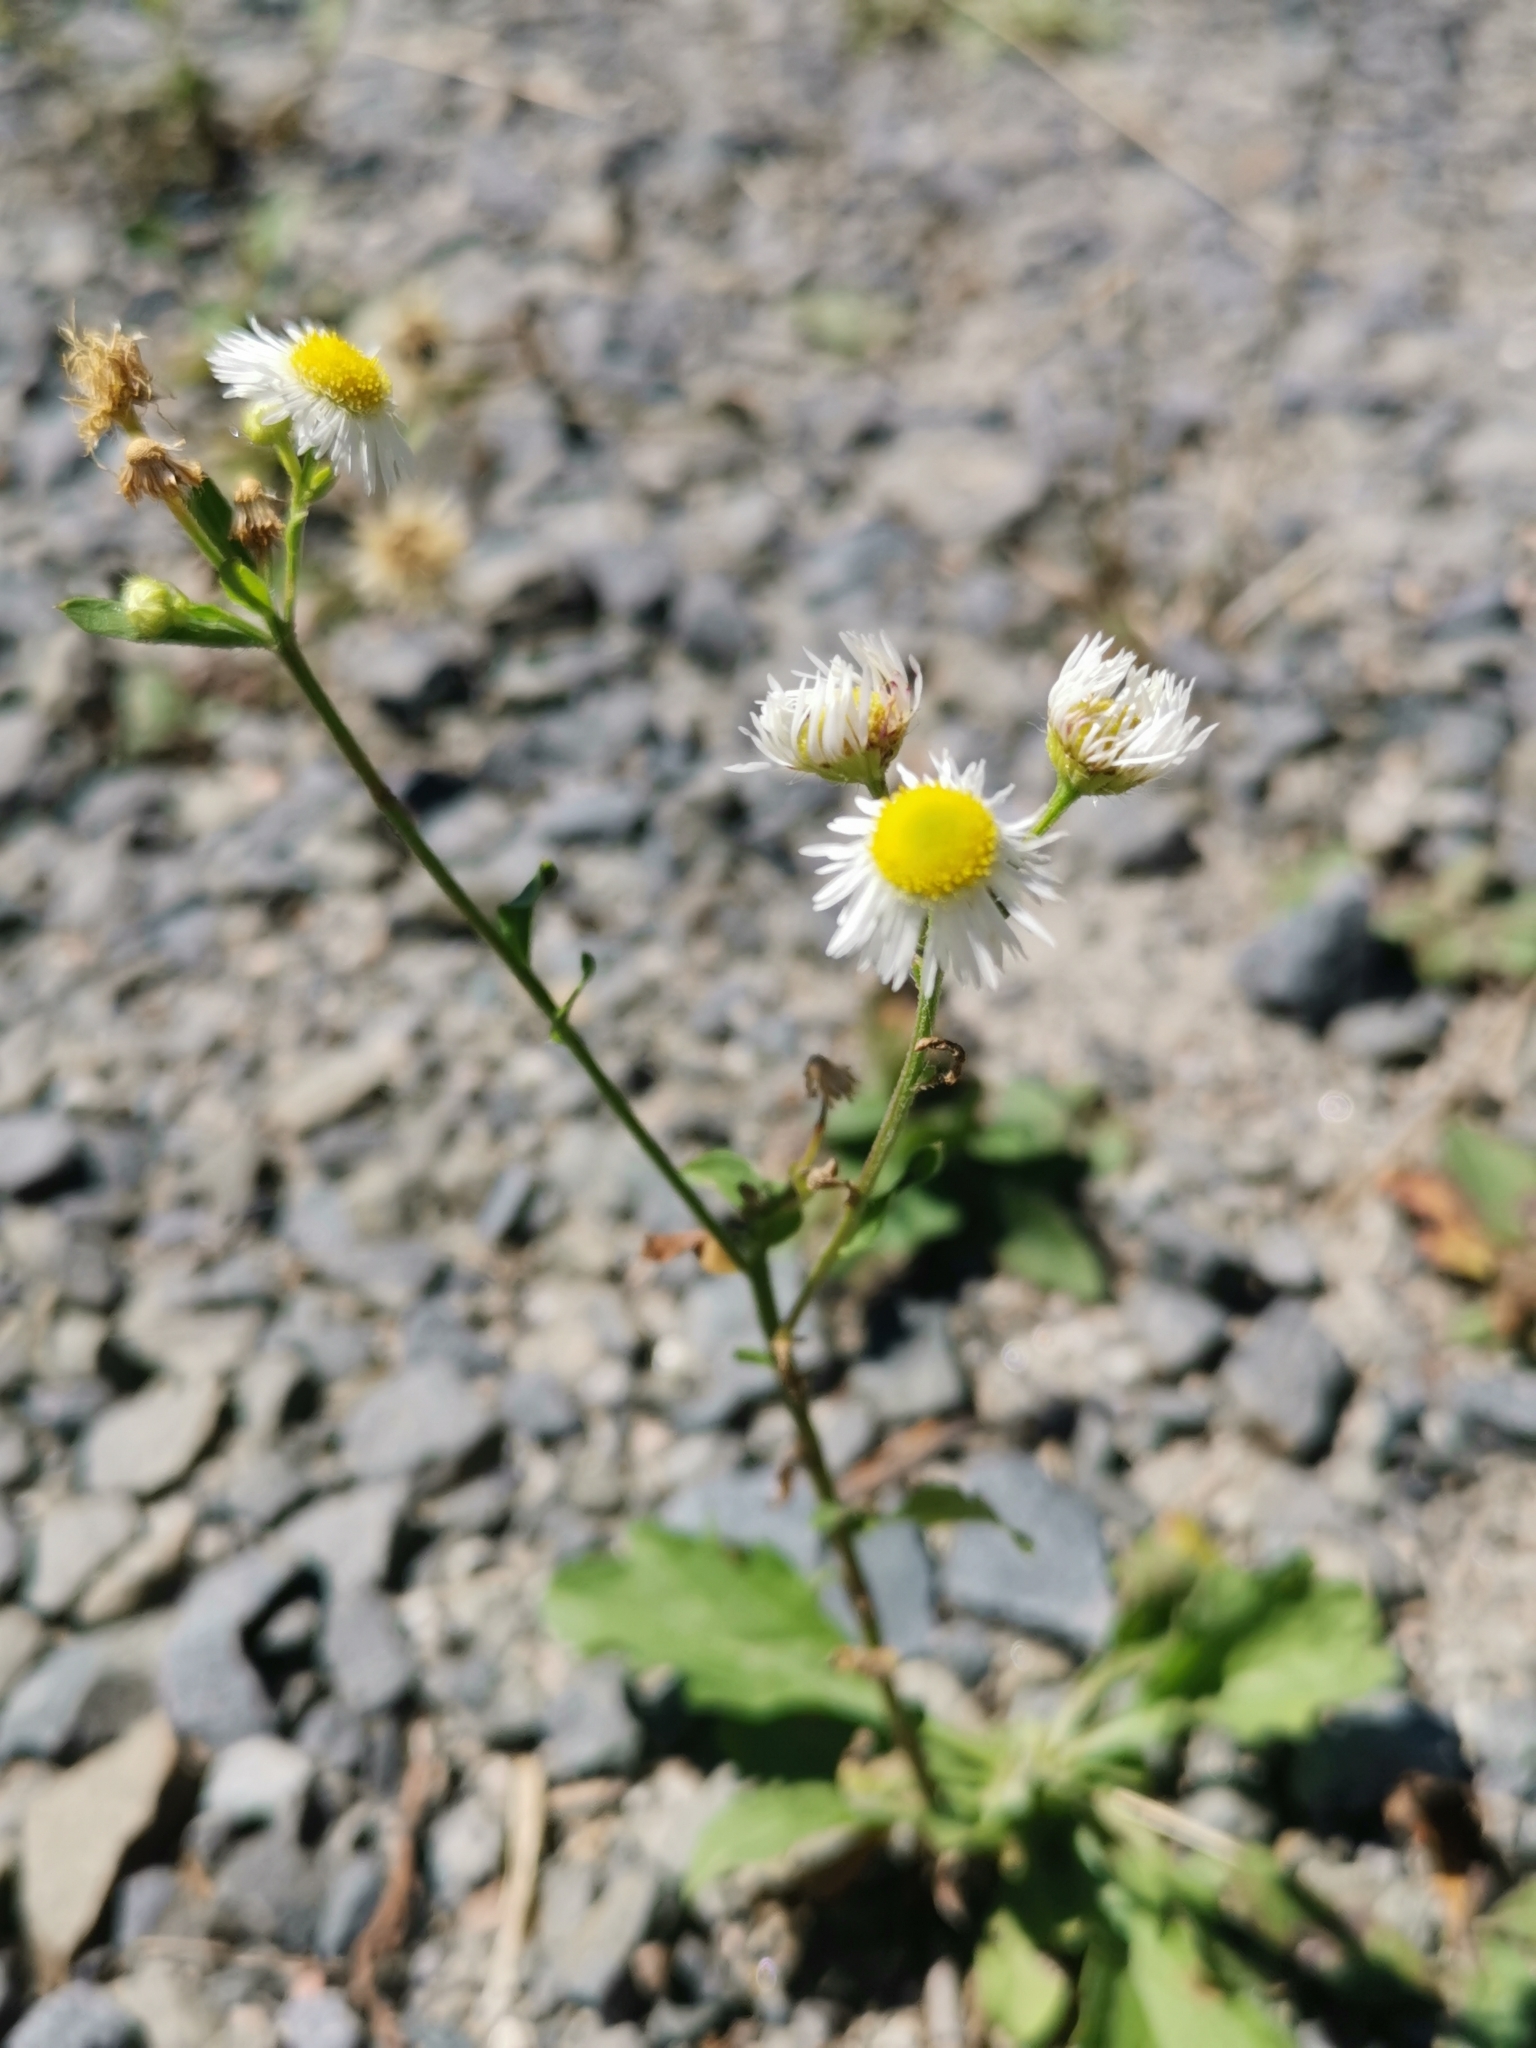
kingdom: Plantae
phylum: Tracheophyta
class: Magnoliopsida
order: Asterales
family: Asteraceae
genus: Erigeron
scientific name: Erigeron annuus
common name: Tall fleabane
